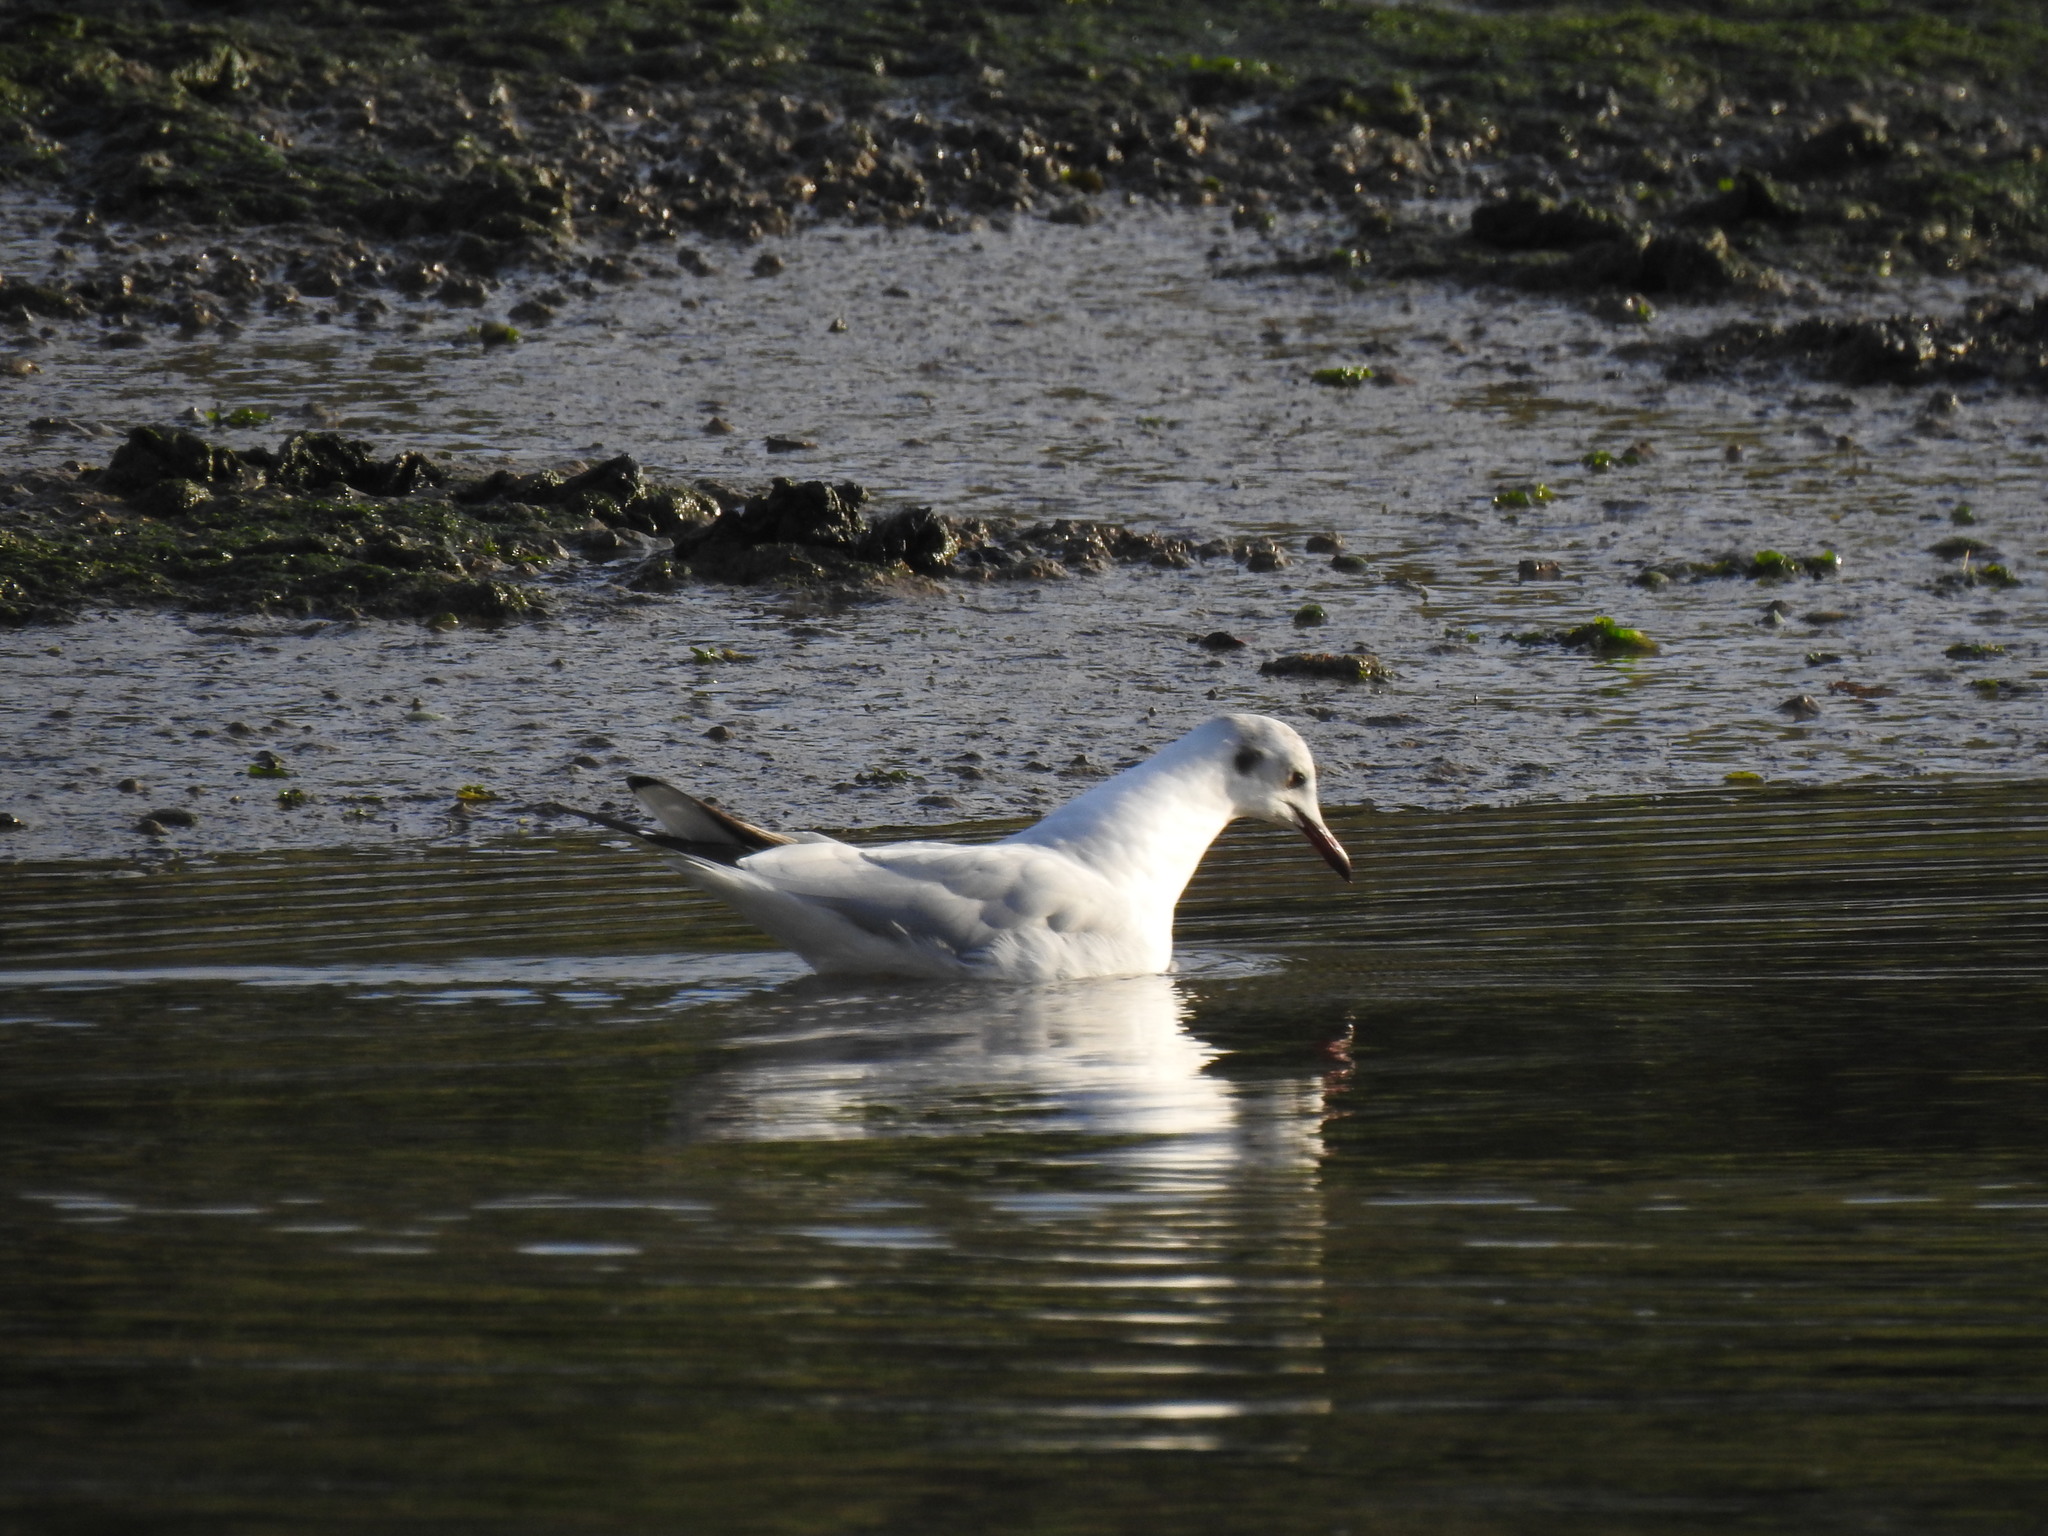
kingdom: Animalia
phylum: Chordata
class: Aves
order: Charadriiformes
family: Laridae
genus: Chroicocephalus
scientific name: Chroicocephalus ridibundus
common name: Black-headed gull
